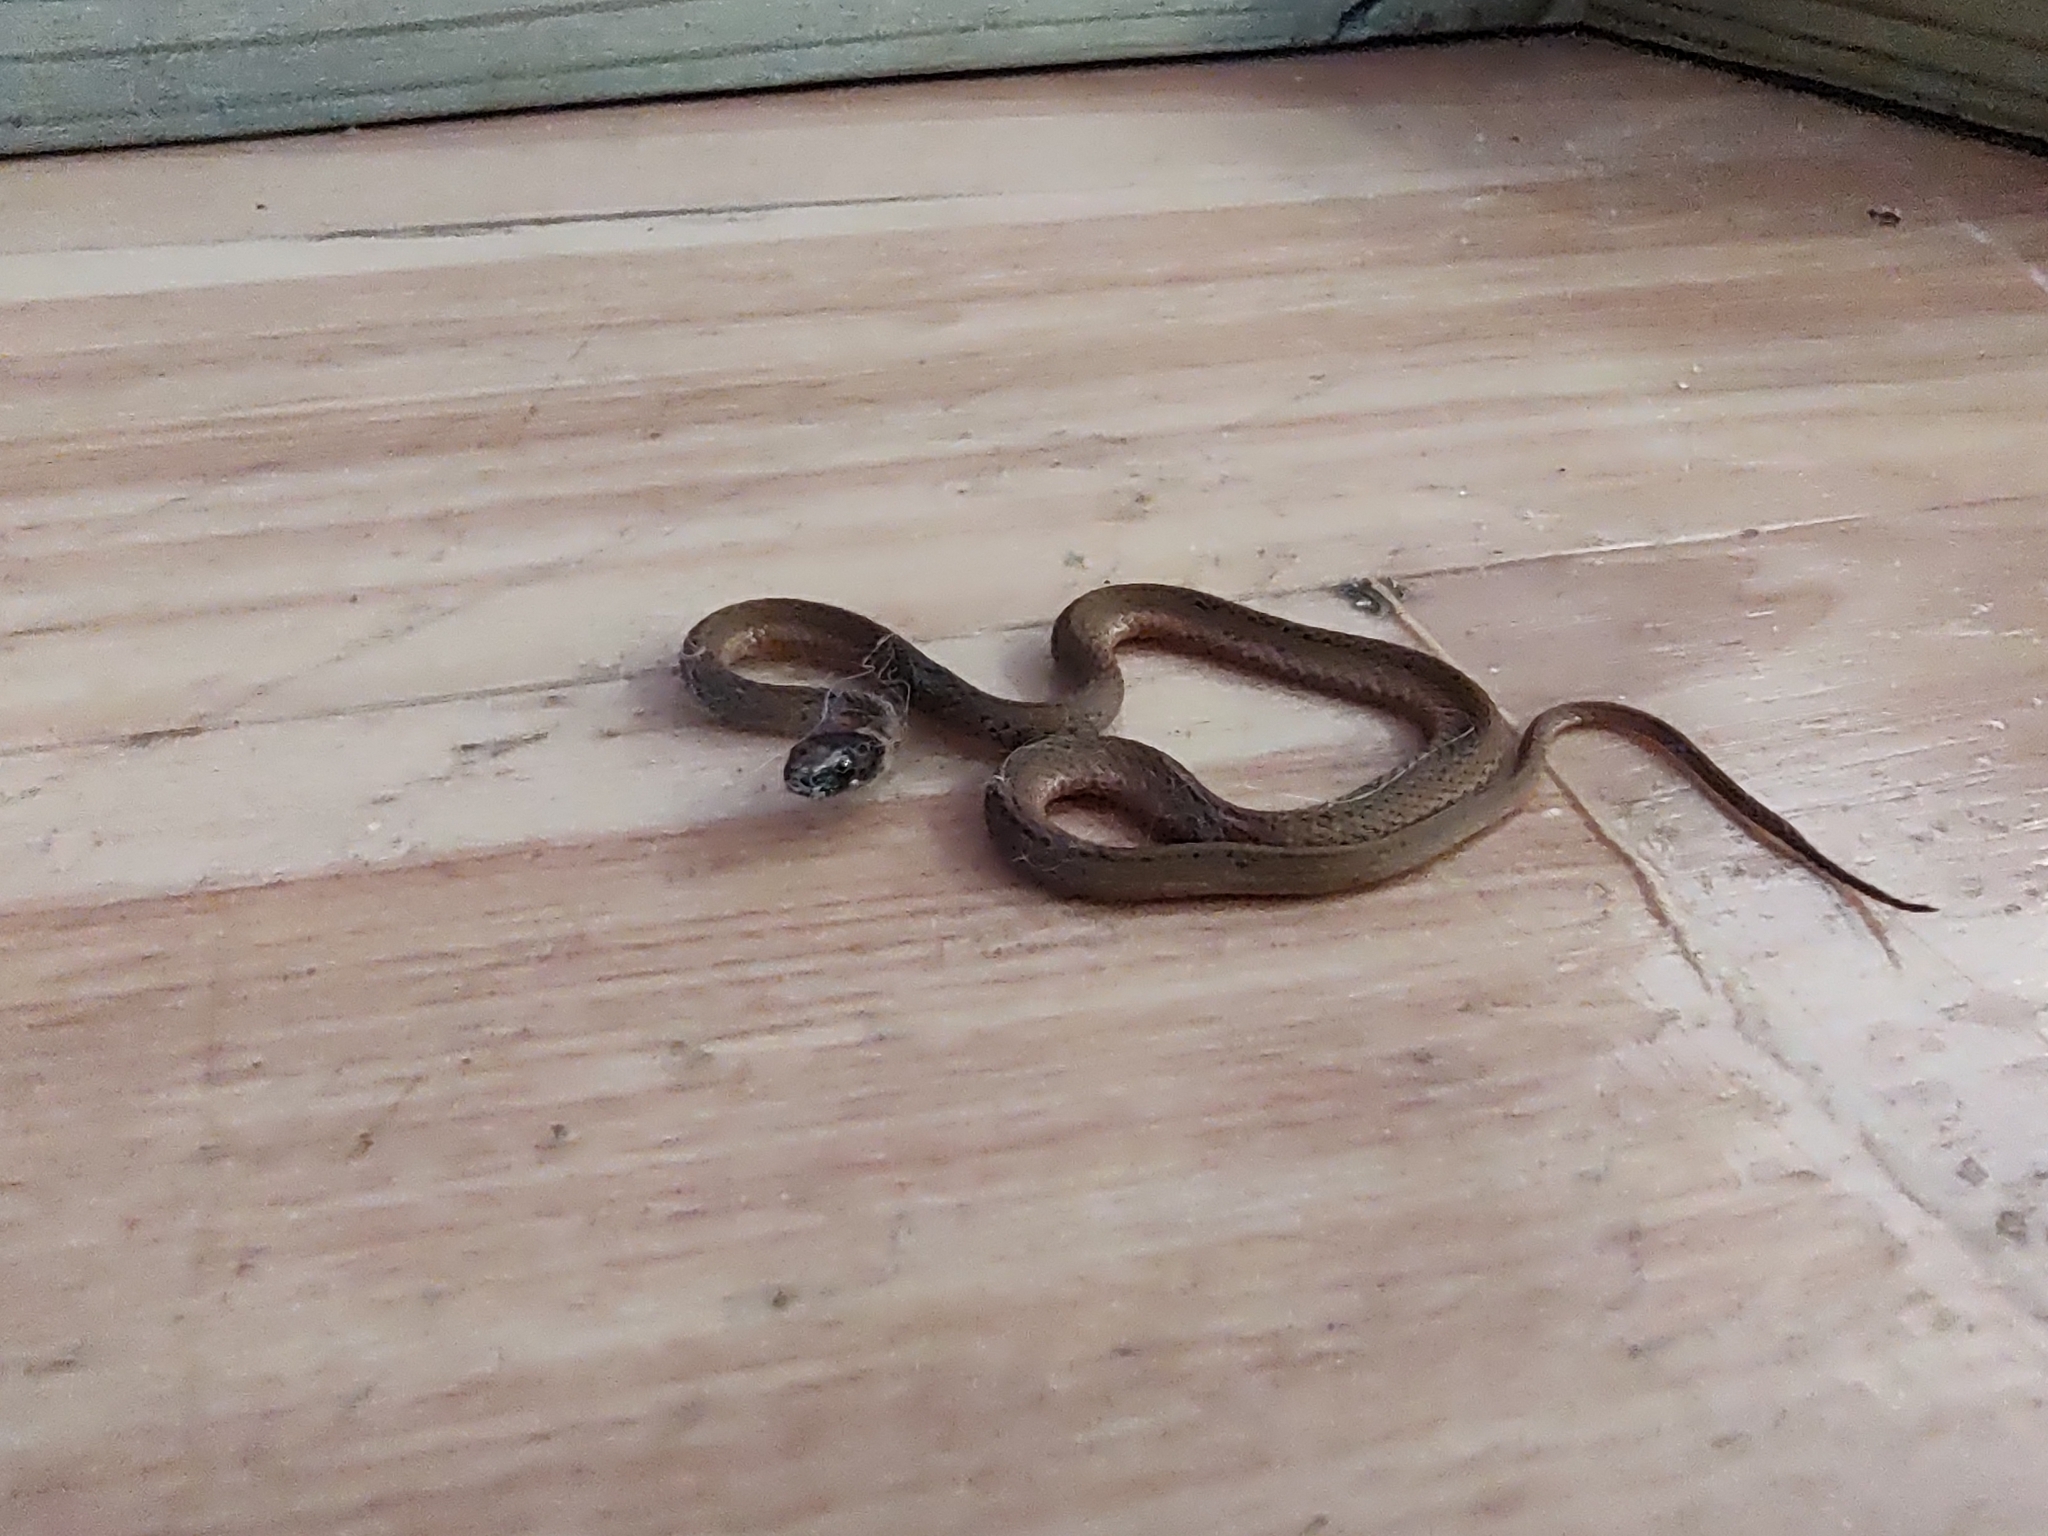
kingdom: Animalia
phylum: Chordata
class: Squamata
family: Colubridae
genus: Storeria
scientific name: Storeria occipitomaculata
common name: Redbelly snake
